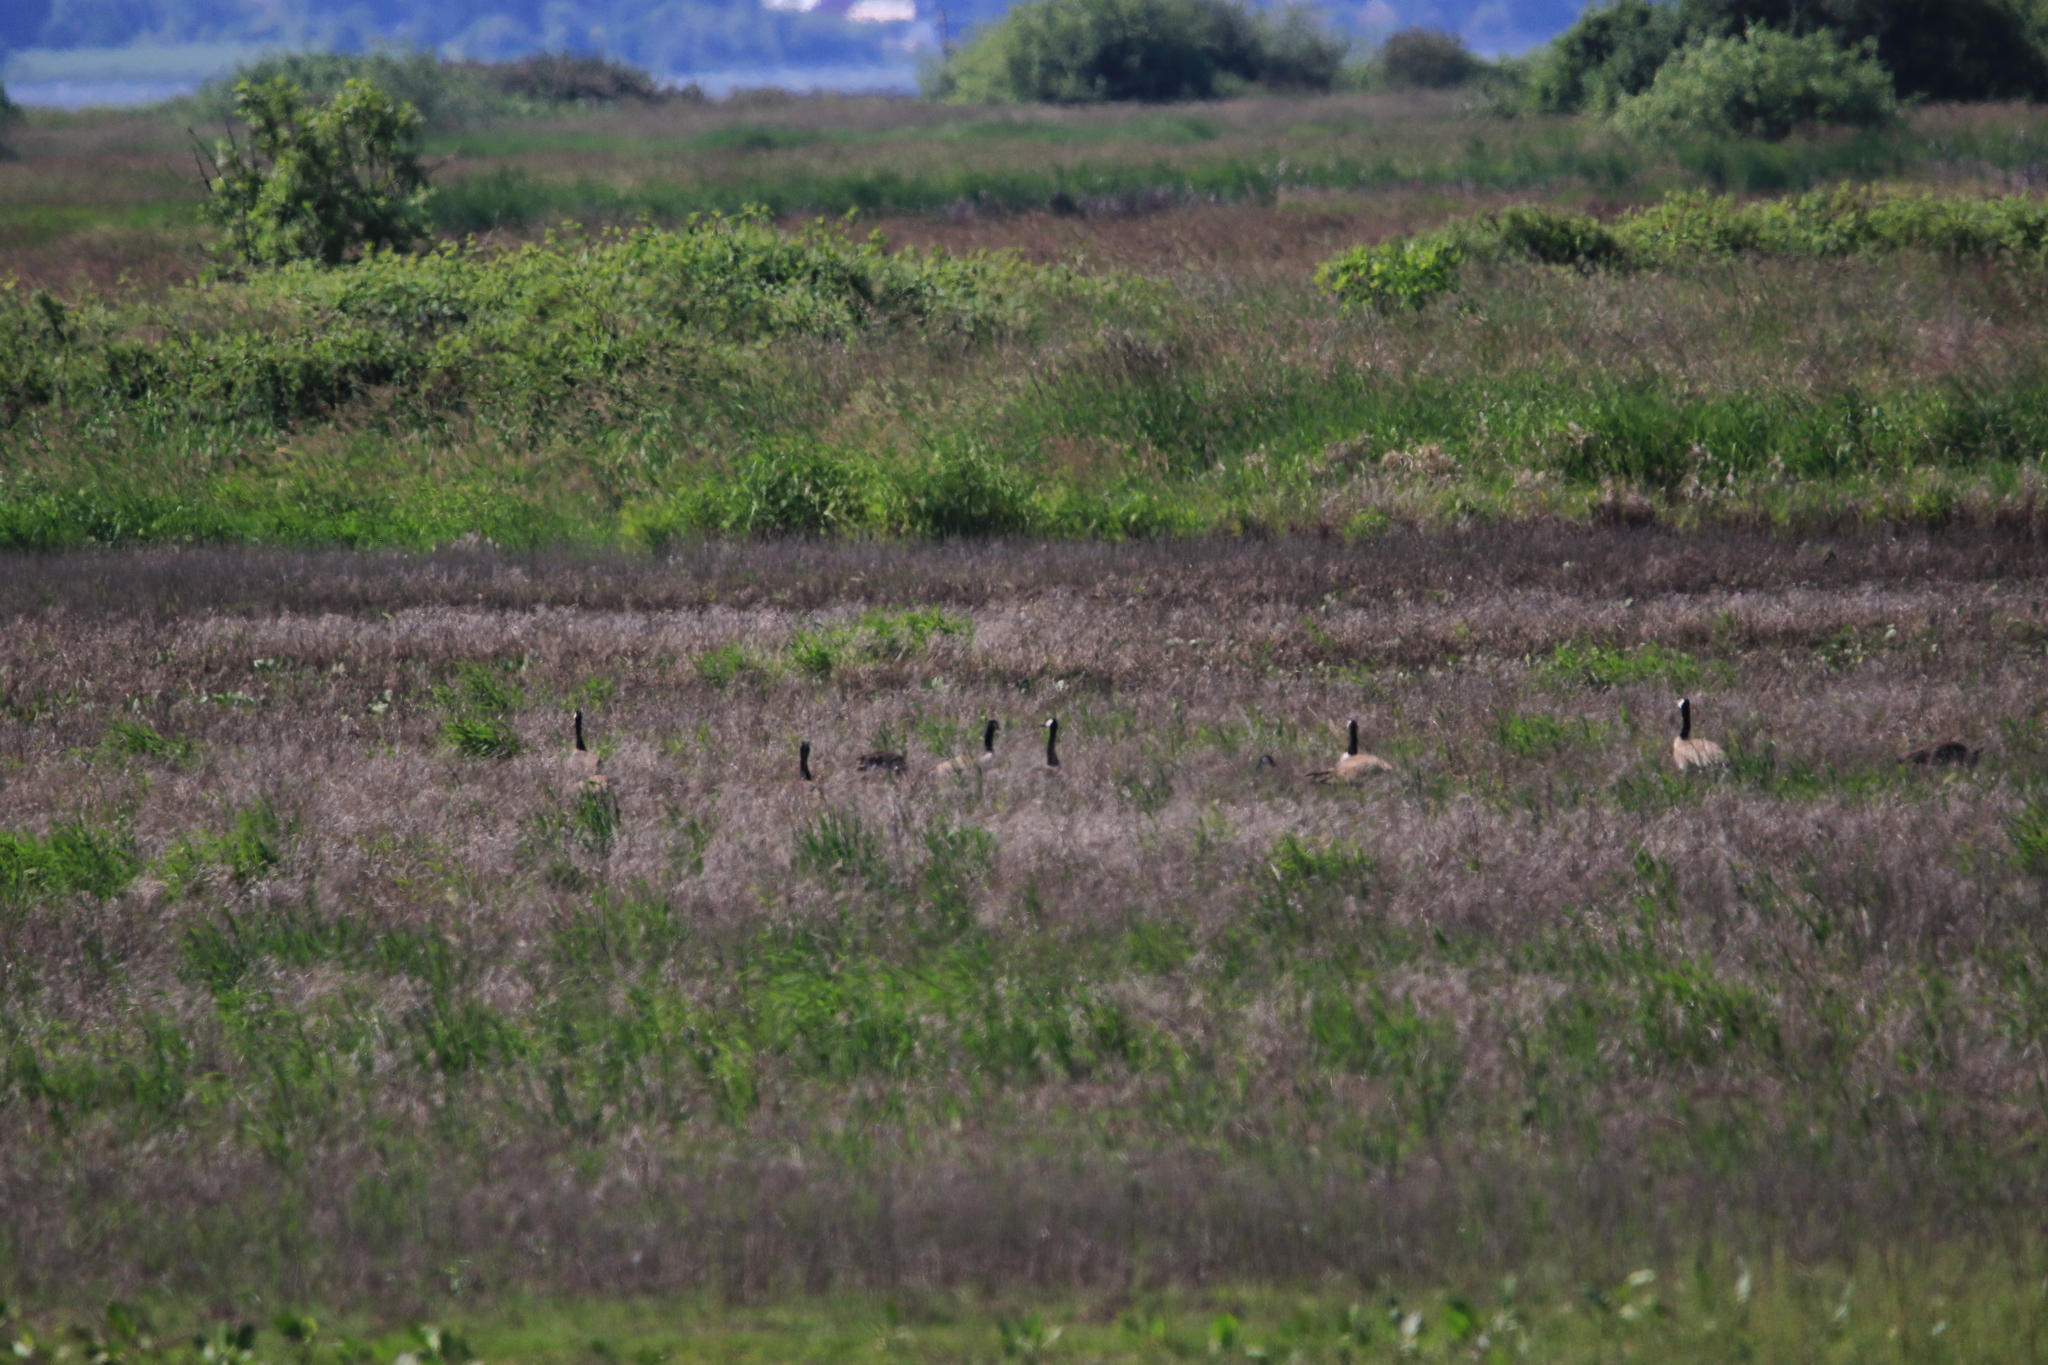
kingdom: Animalia
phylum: Chordata
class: Aves
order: Anseriformes
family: Anatidae
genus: Branta
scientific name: Branta canadensis
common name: Canada goose
